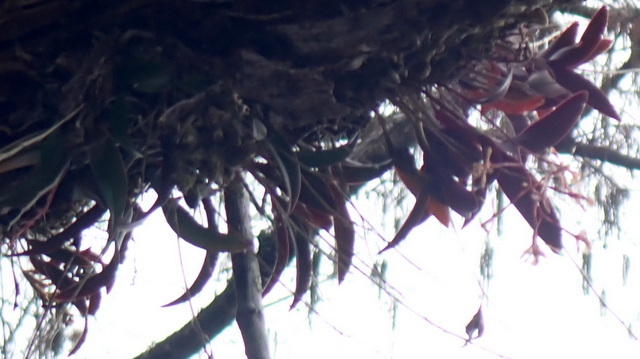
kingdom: Plantae
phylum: Tracheophyta
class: Liliopsida
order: Asparagales
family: Orchidaceae
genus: Epidendrum
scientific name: Epidendrum conopseum
